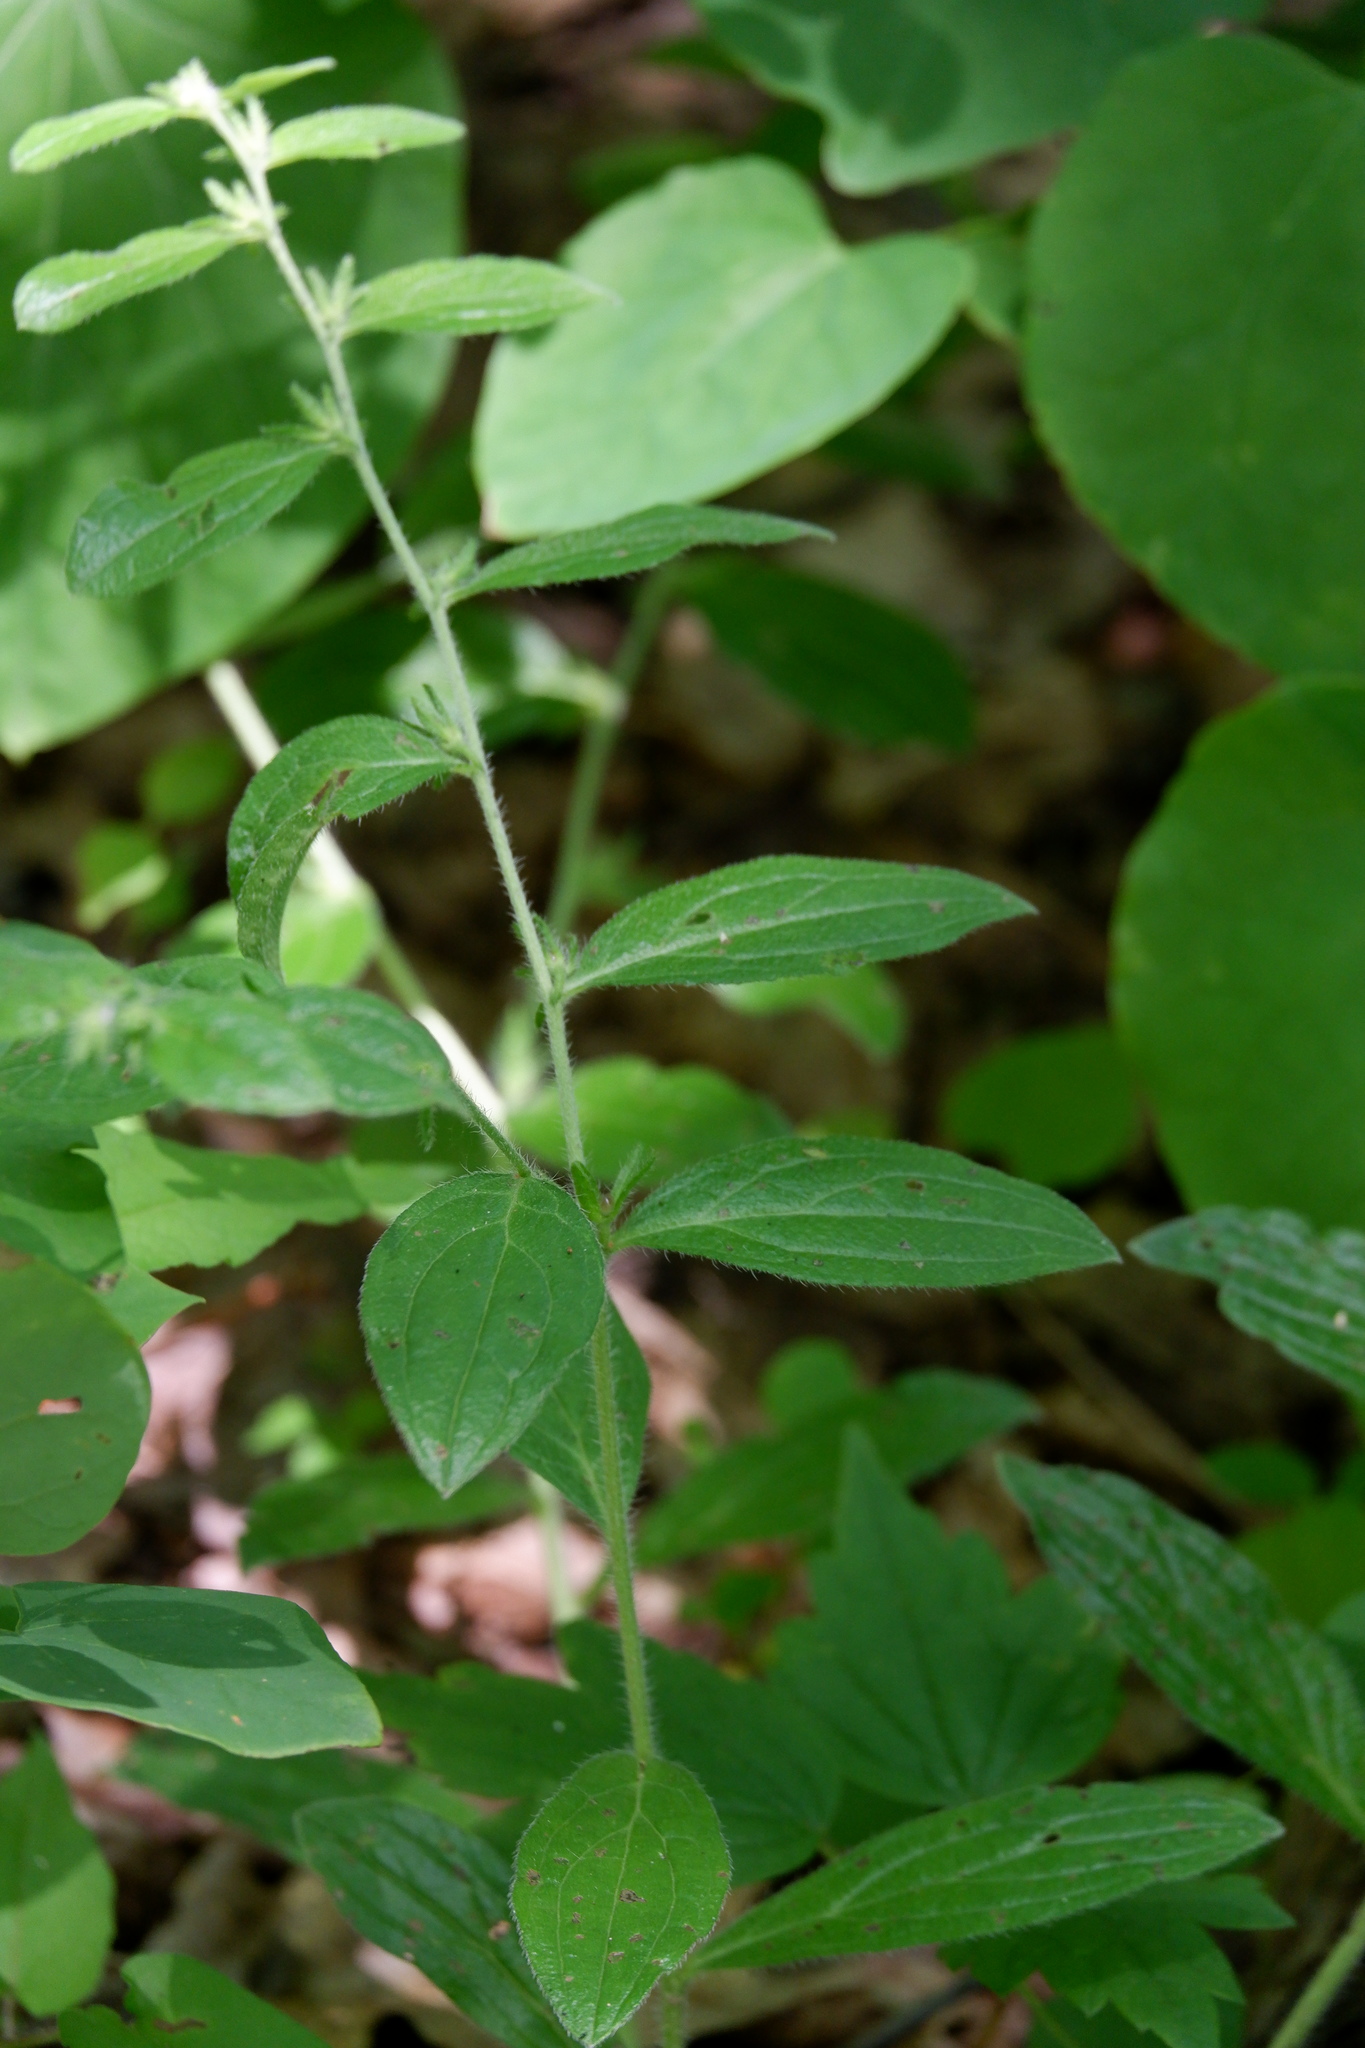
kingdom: Plantae
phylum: Tracheophyta
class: Magnoliopsida
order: Boraginales
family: Boraginaceae
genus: Lithospermum
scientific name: Lithospermum tuberosum
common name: Southern stoneseed
